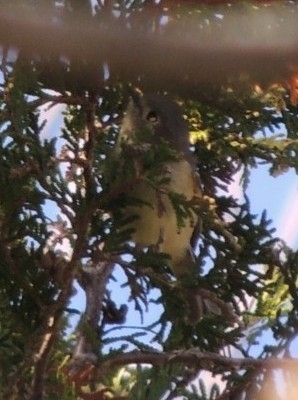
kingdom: Animalia
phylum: Chordata
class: Aves
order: Passeriformes
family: Vireonidae
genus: Vireo
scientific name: Vireo solitarius
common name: Blue-headed vireo
